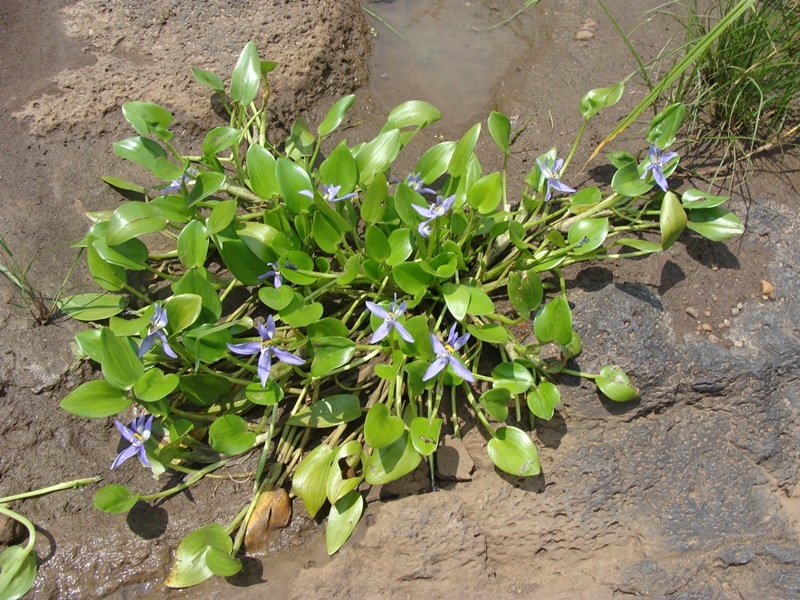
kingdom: Plantae
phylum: Tracheophyta
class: Liliopsida
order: Commelinales
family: Pontederiaceae
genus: Heteranthera
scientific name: Heteranthera rotundifolia
